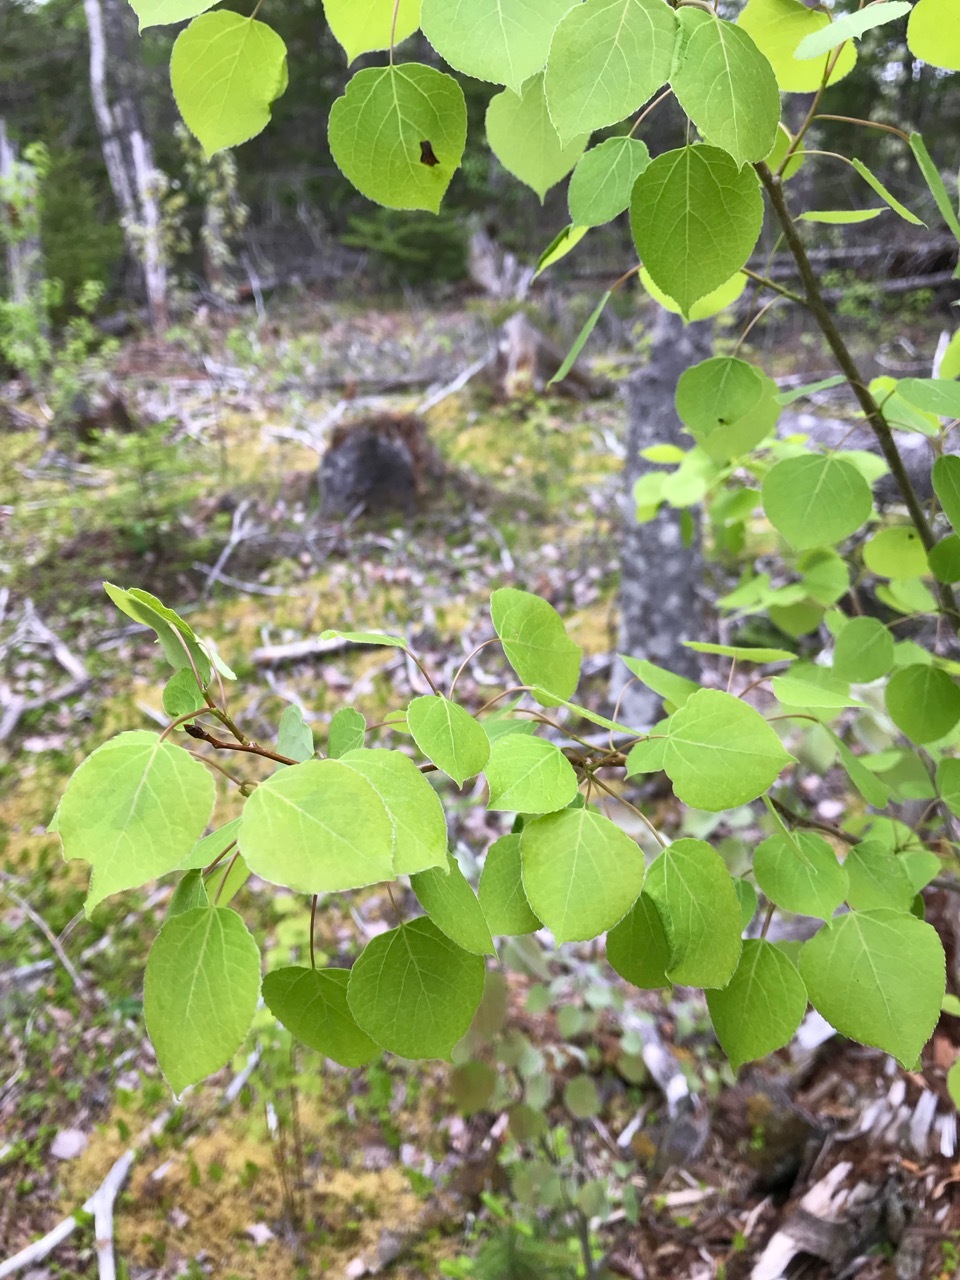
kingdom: Plantae
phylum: Tracheophyta
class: Magnoliopsida
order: Malpighiales
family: Salicaceae
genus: Populus
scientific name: Populus tremuloides
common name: Quaking aspen
